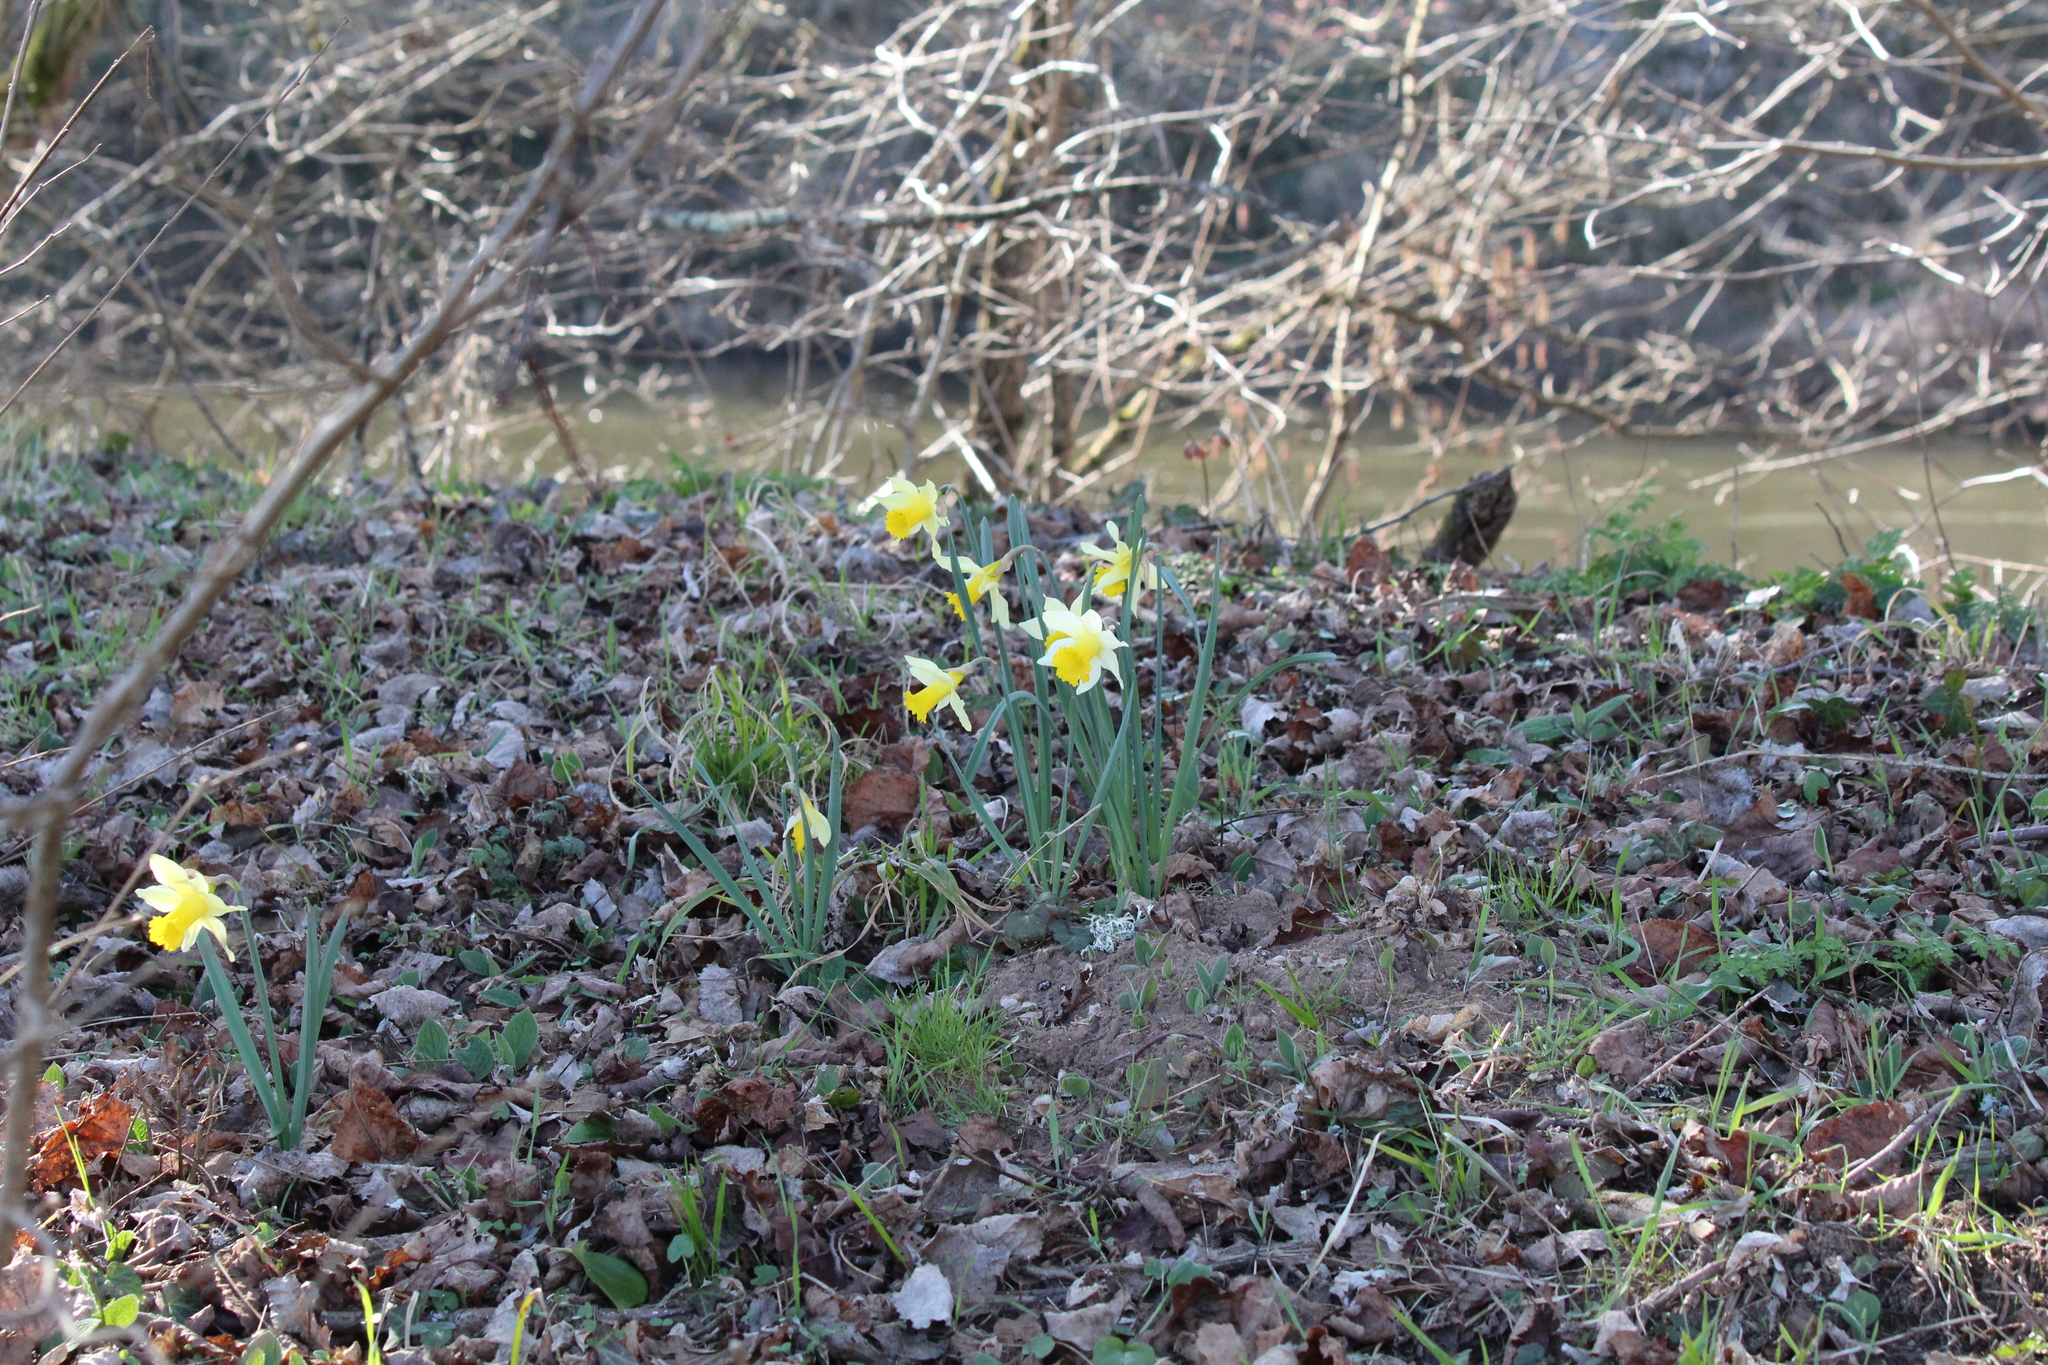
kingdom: Plantae
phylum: Tracheophyta
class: Liliopsida
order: Asparagales
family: Amaryllidaceae
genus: Narcissus
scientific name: Narcissus pseudonarcissus
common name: Daffodil
